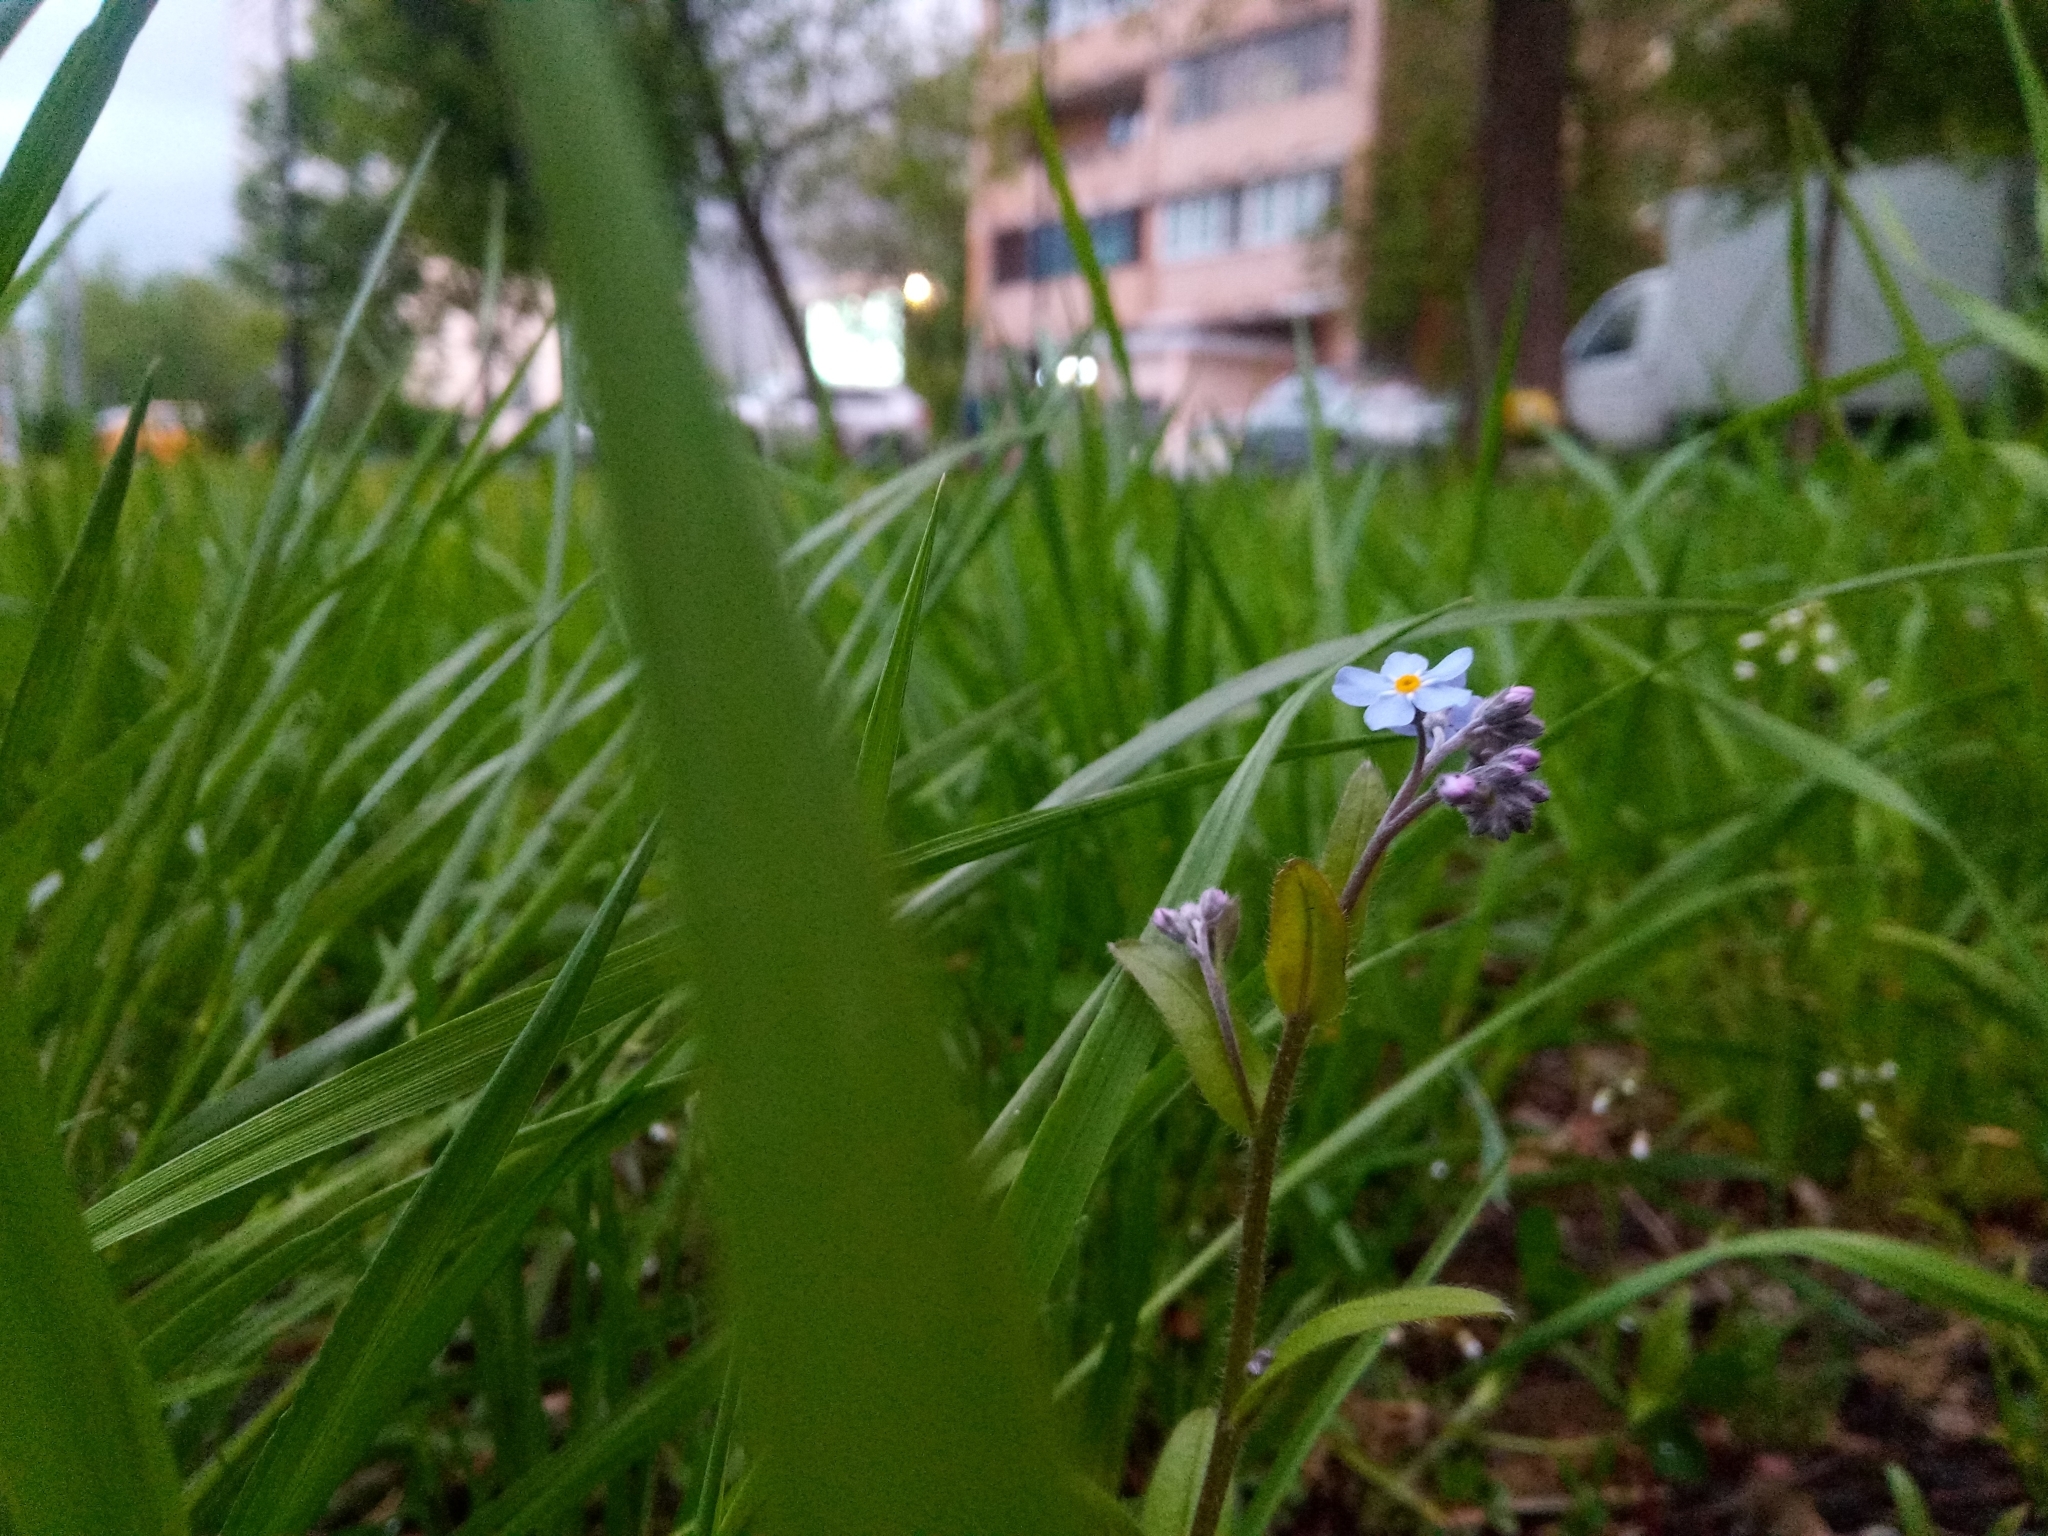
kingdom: Plantae
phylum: Tracheophyta
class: Magnoliopsida
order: Boraginales
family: Boraginaceae
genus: Myosotis
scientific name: Myosotis sylvatica
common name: Wood forget-me-not
